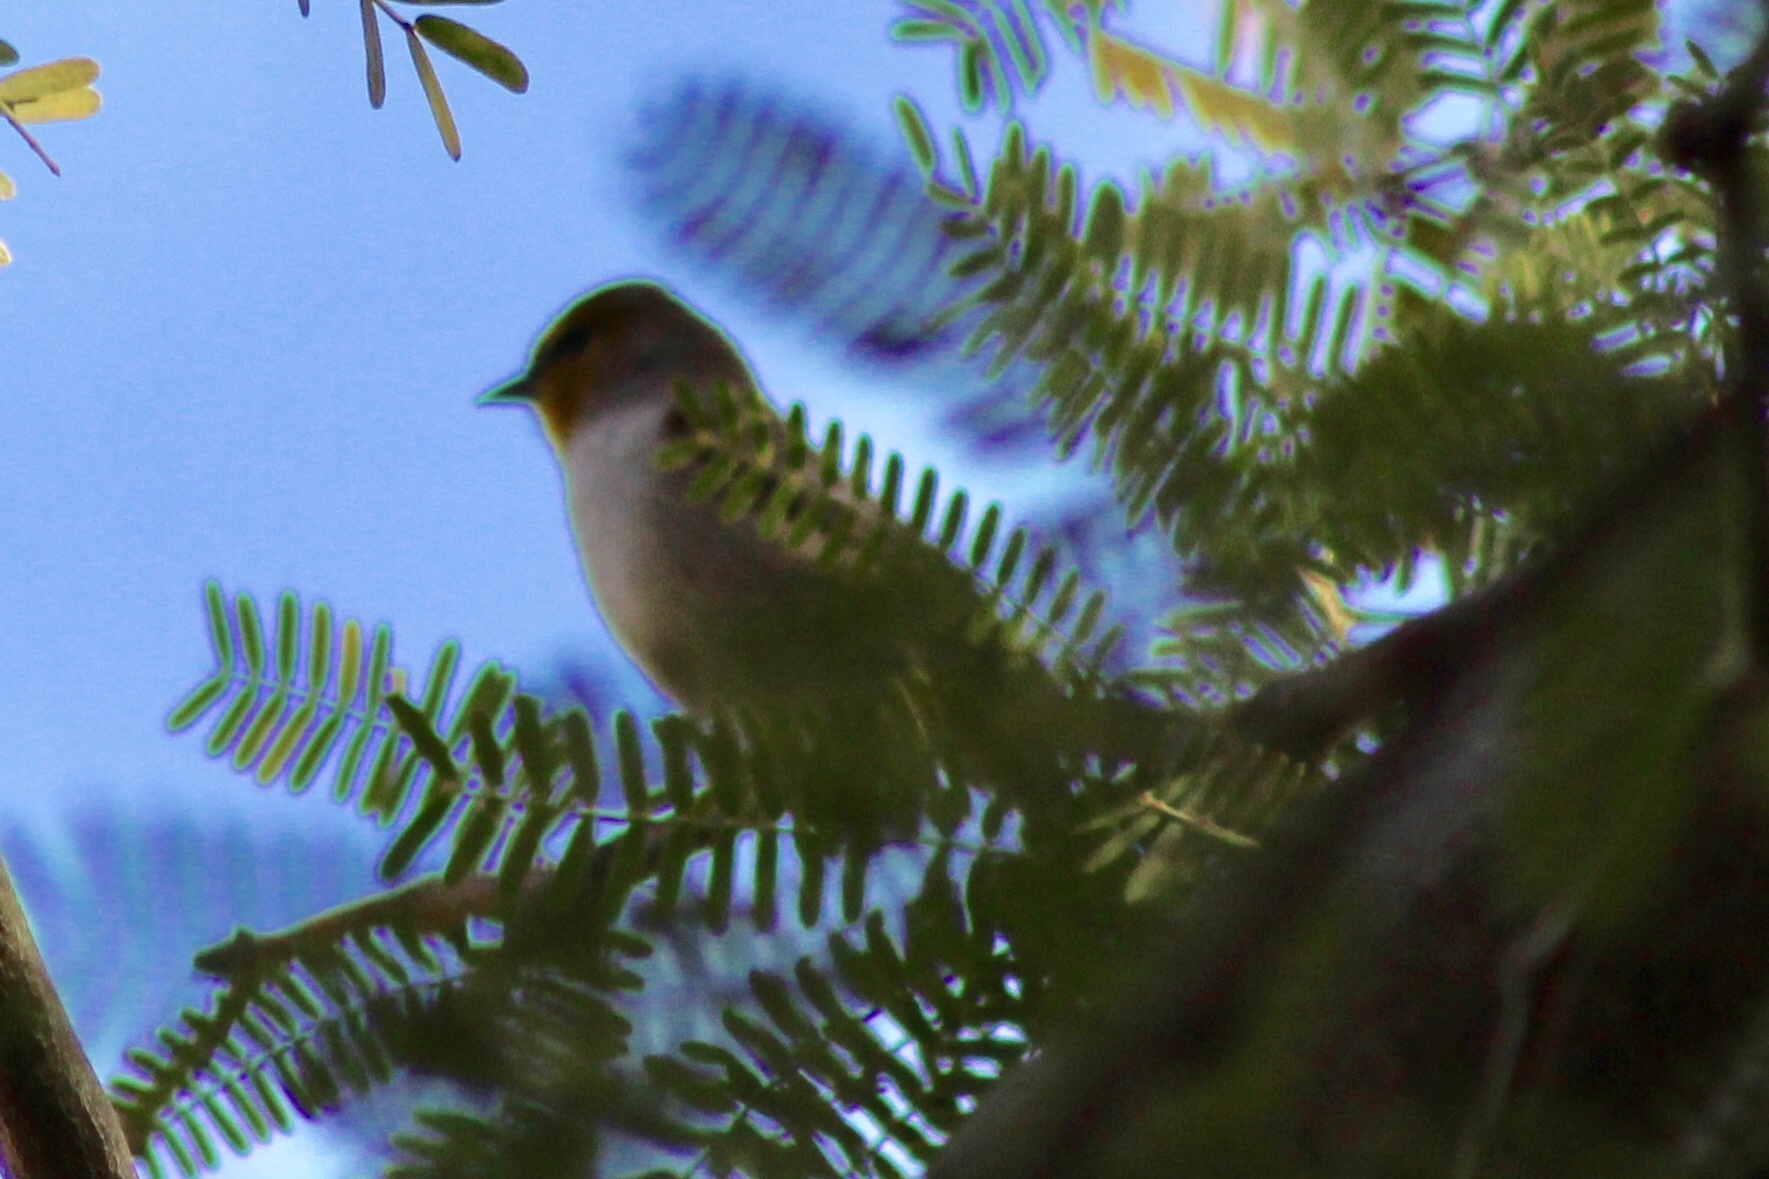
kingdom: Animalia
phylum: Chordata
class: Aves
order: Passeriformes
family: Remizidae
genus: Auriparus
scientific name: Auriparus flaviceps
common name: Verdin
